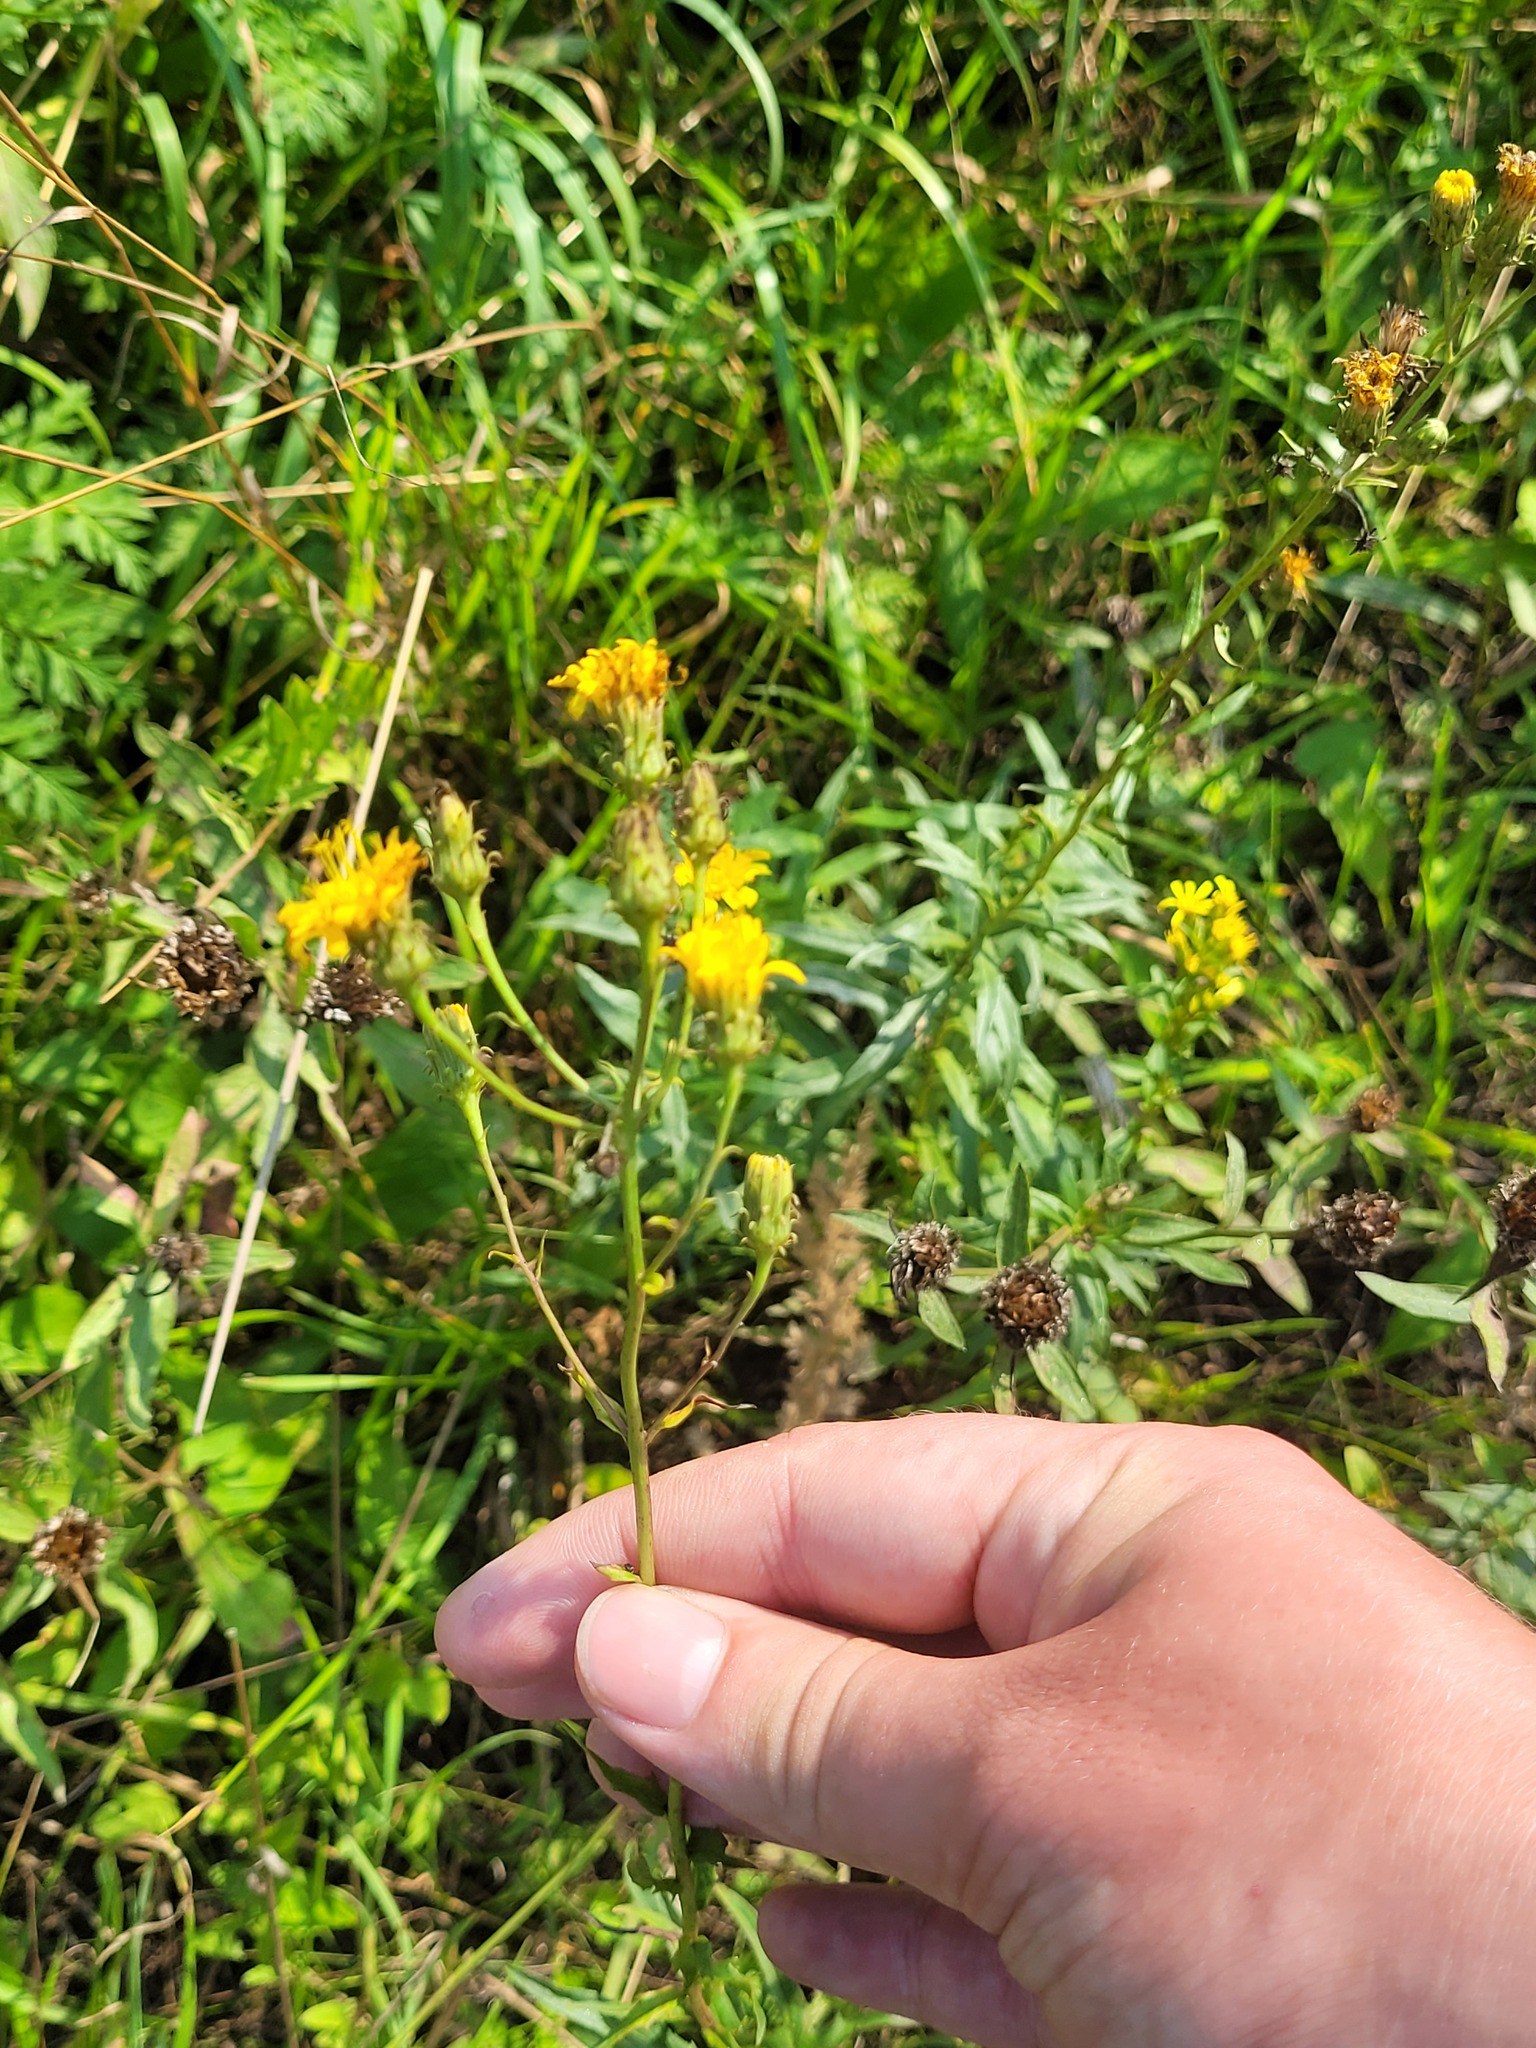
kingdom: Plantae
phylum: Tracheophyta
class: Magnoliopsida
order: Asterales
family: Asteraceae
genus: Hieracium
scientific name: Hieracium umbellatum
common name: Northern hawkweed
